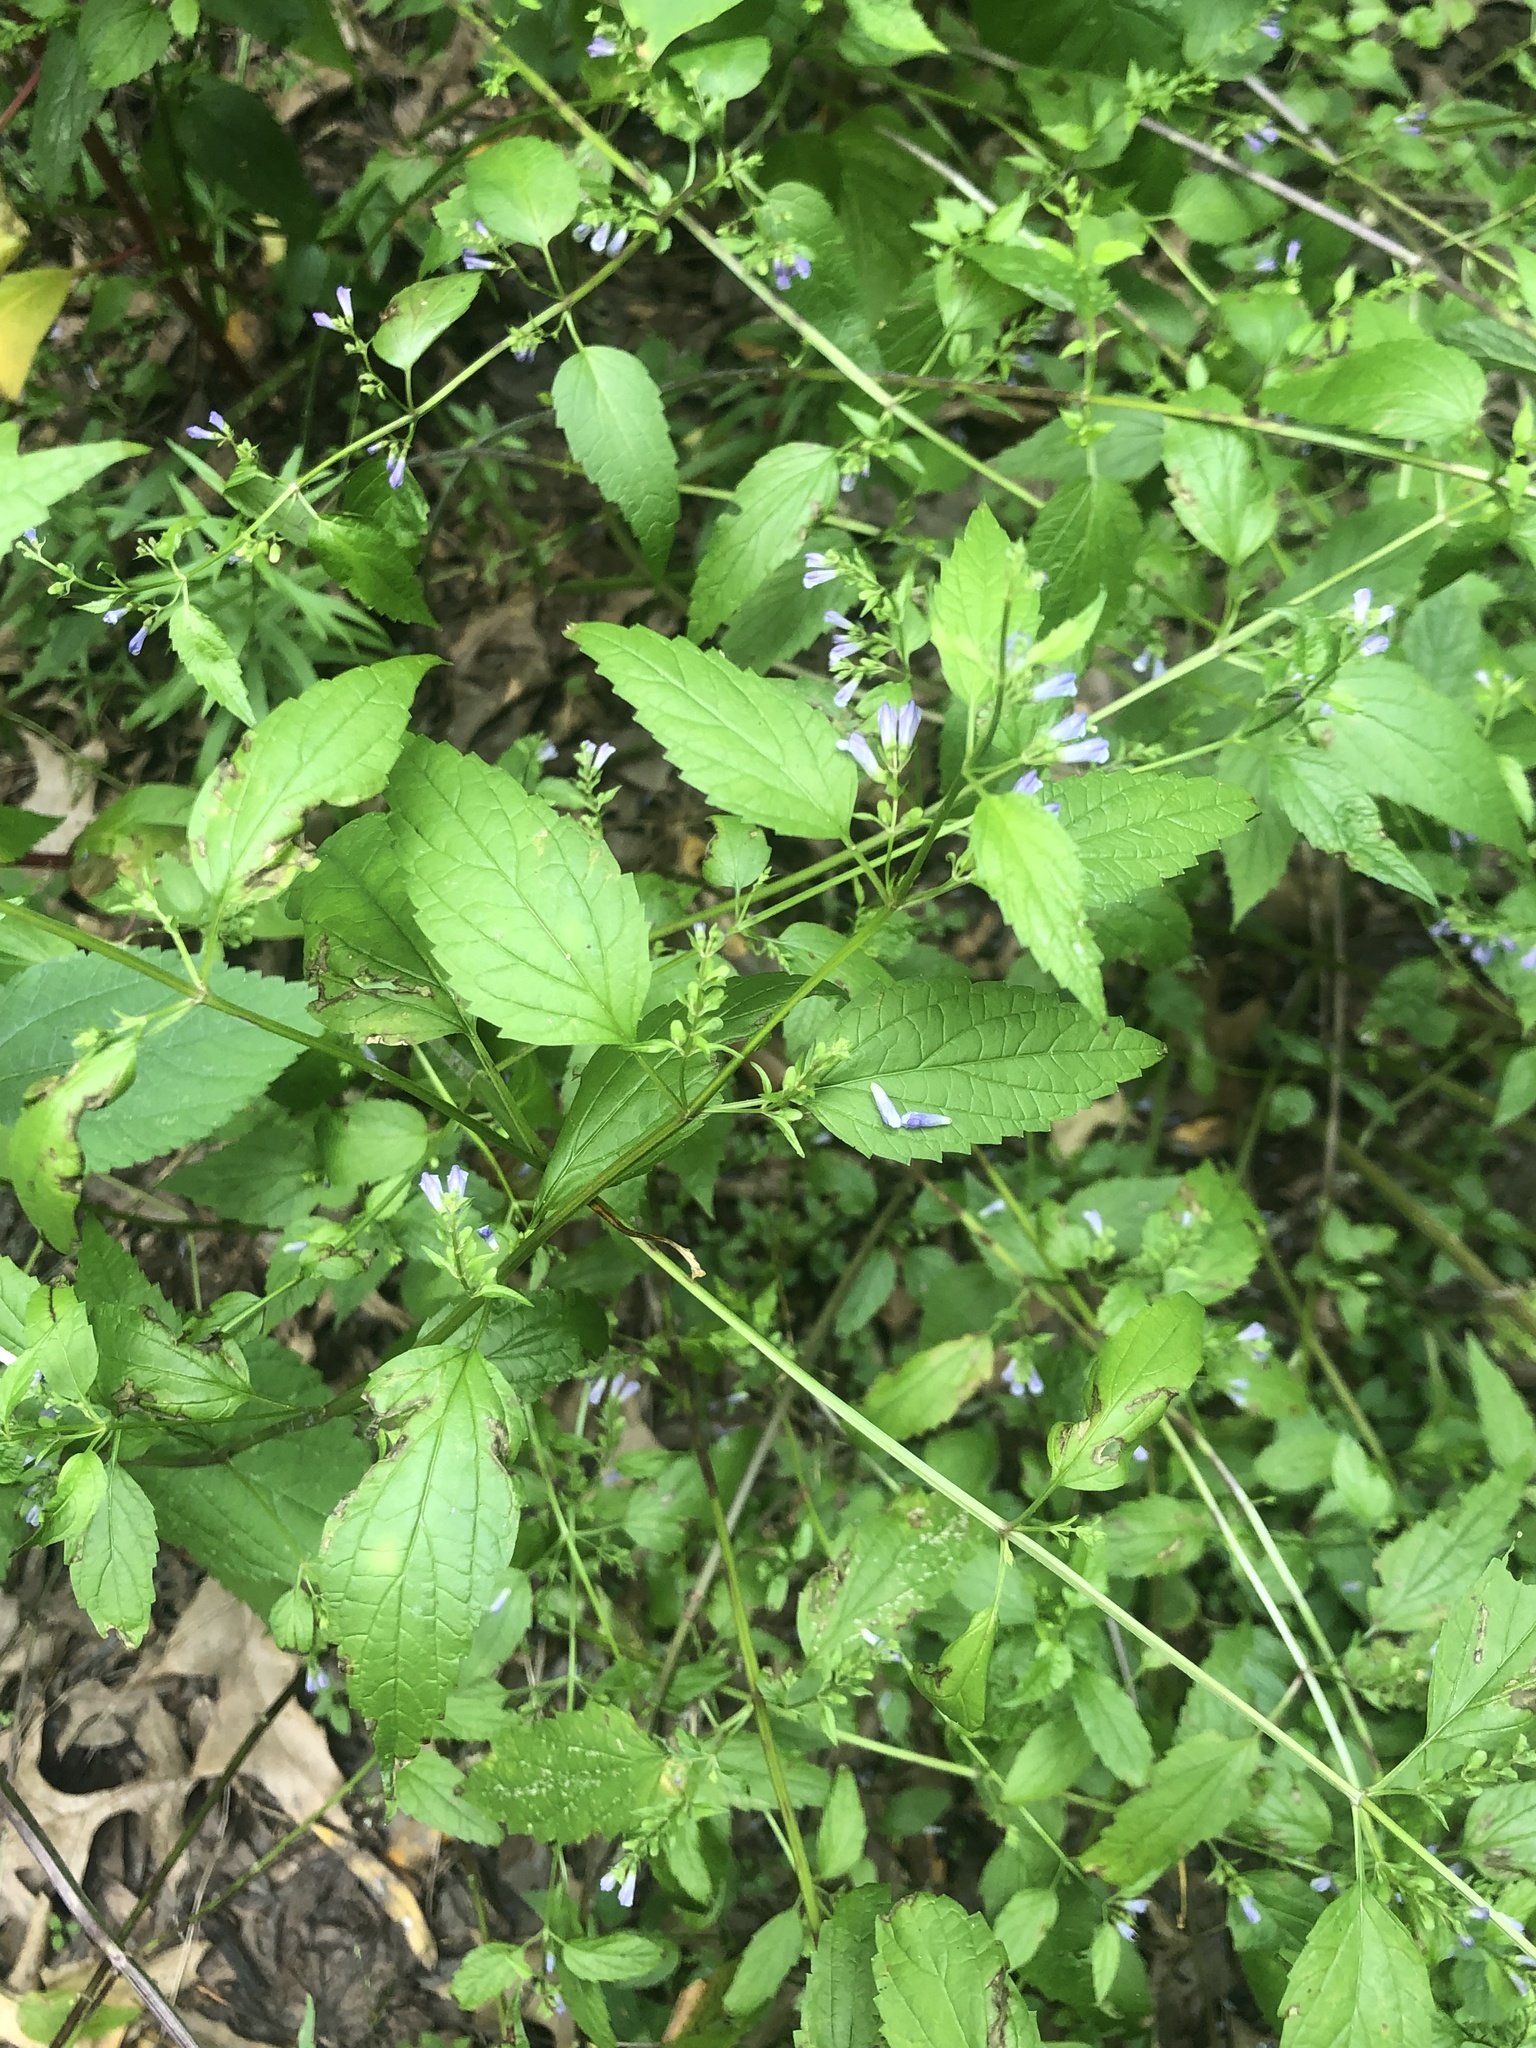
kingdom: Plantae
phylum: Tracheophyta
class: Magnoliopsida
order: Lamiales
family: Lamiaceae
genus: Scutellaria
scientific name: Scutellaria lateriflora
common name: Blue skullcap
